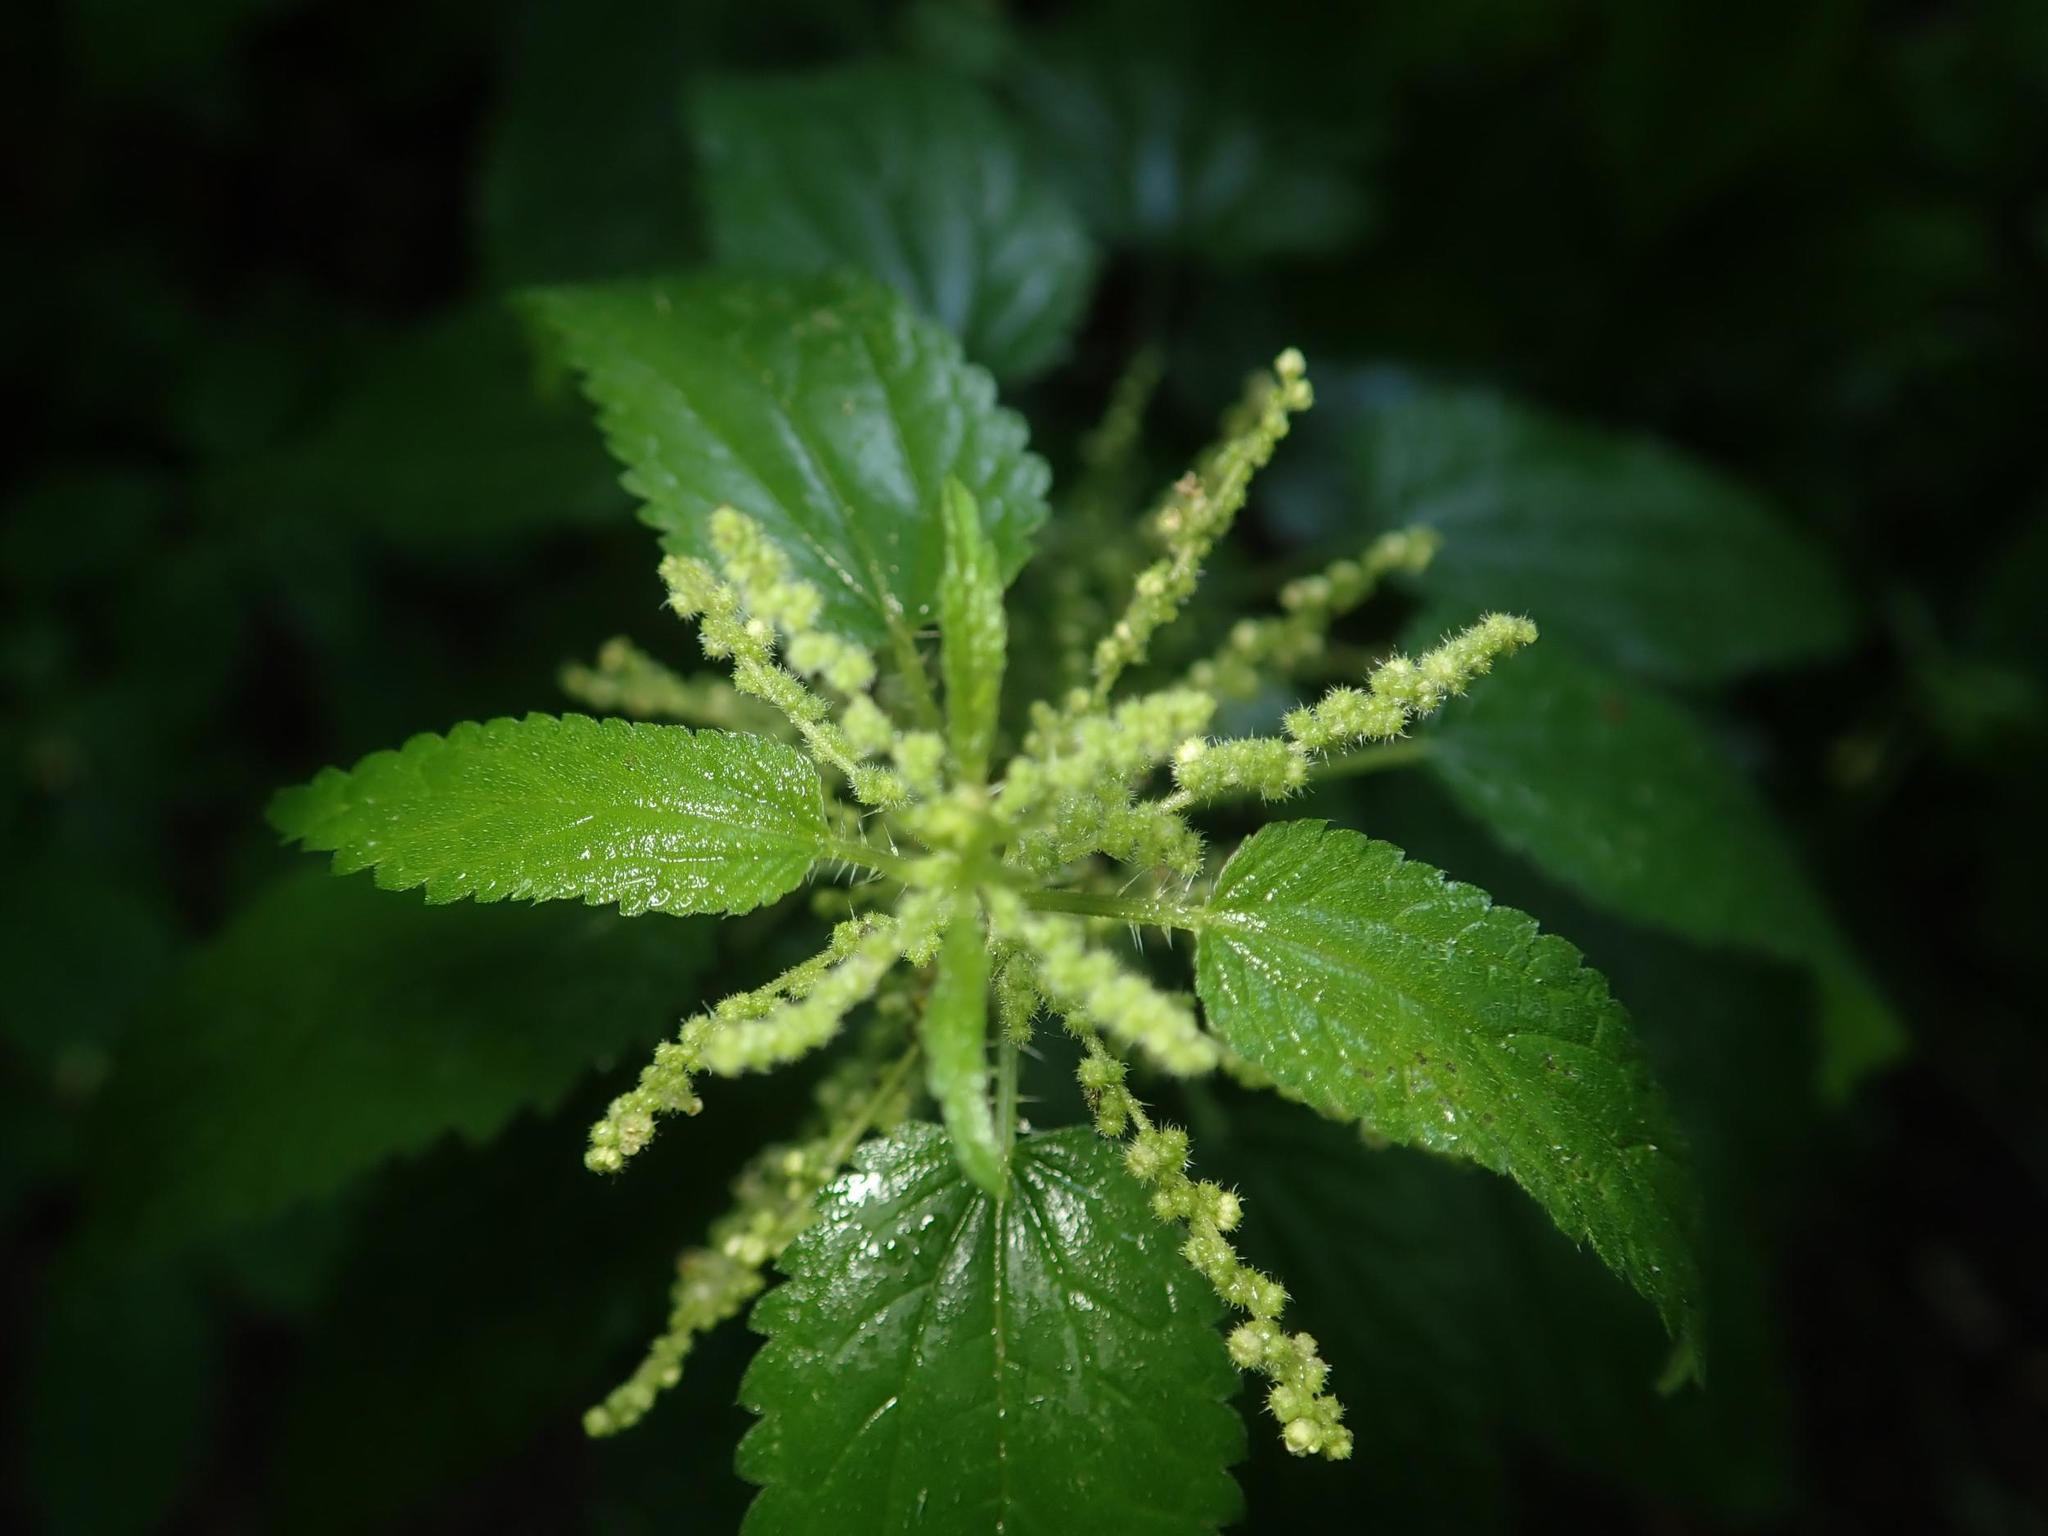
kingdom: Plantae
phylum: Tracheophyta
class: Magnoliopsida
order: Rosales
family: Urticaceae
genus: Urtica
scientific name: Urtica dioica
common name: Common nettle
